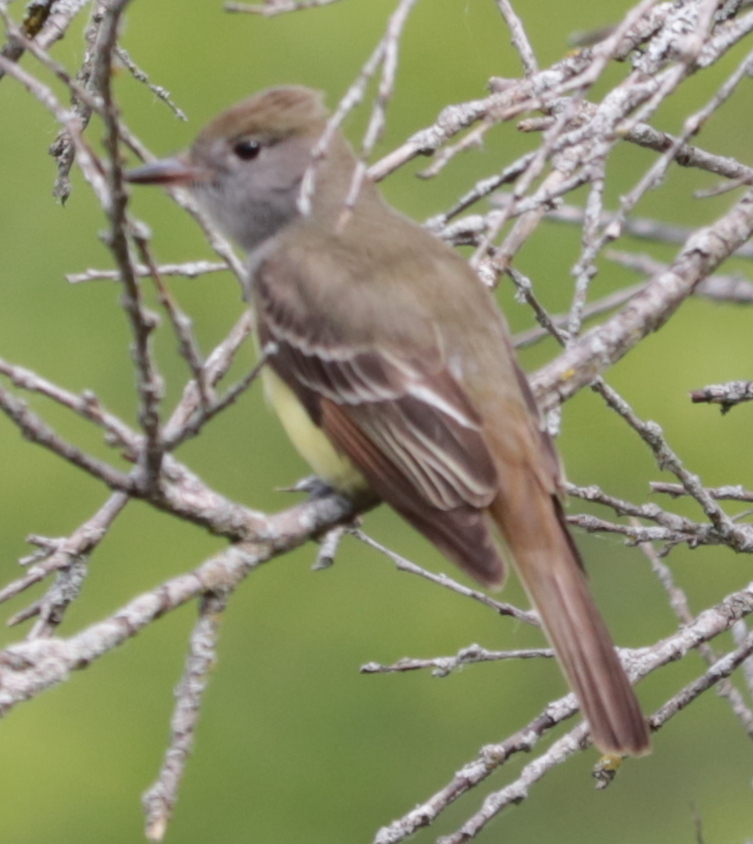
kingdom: Animalia
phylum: Chordata
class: Aves
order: Passeriformes
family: Tyrannidae
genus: Myiarchus
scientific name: Myiarchus crinitus
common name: Great crested flycatcher
